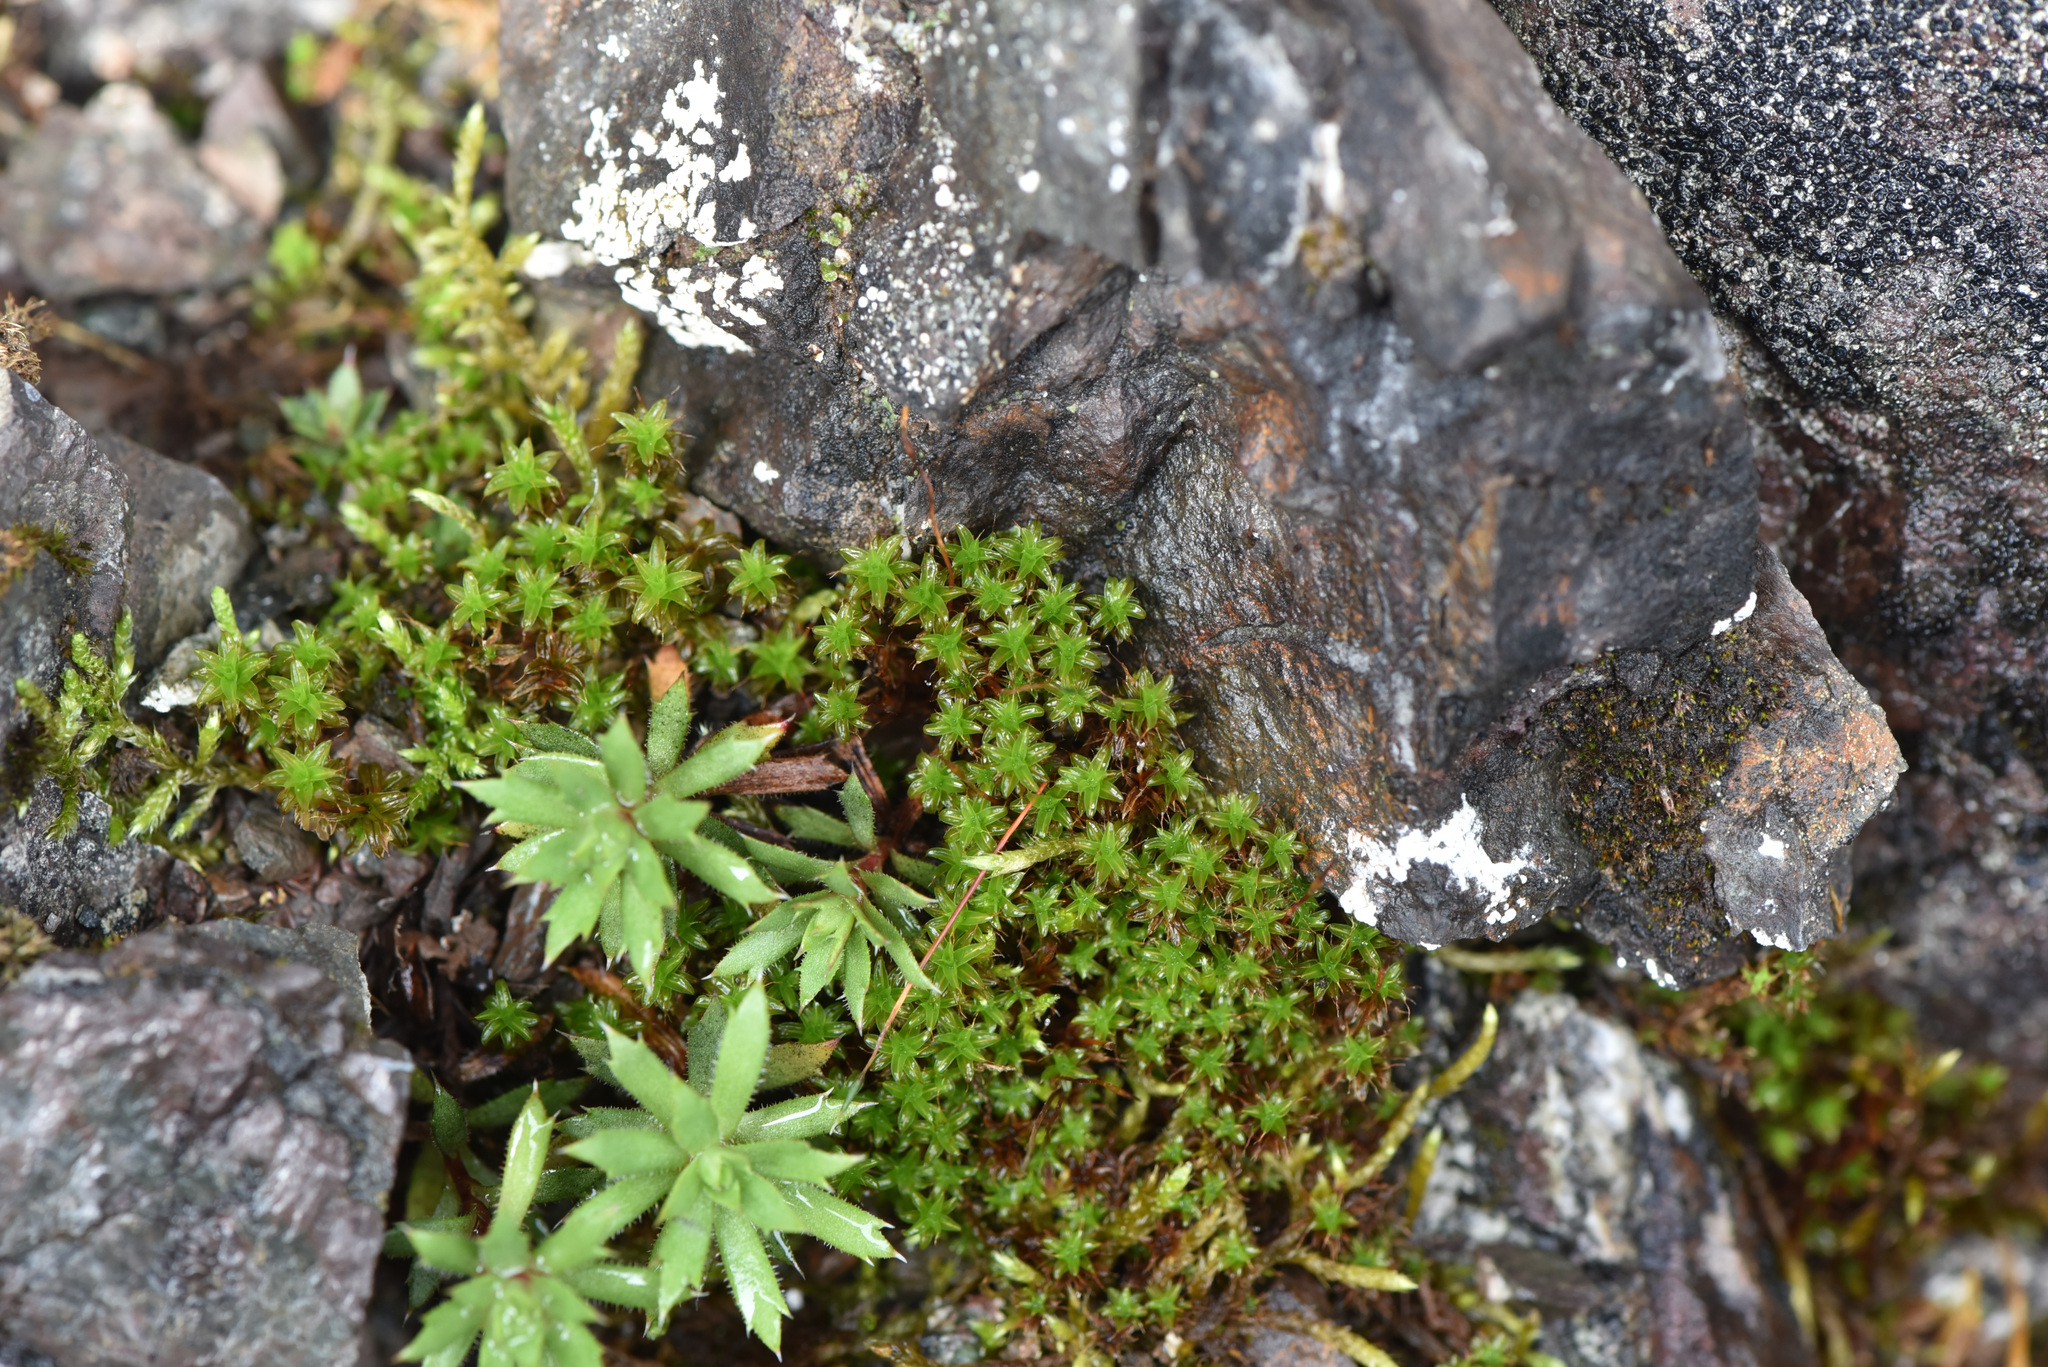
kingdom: Plantae
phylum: Tracheophyta
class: Magnoliopsida
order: Saxifragales
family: Saxifragaceae
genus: Saxifraga
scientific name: Saxifraga tricuspidata
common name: Prickly saxifrage
